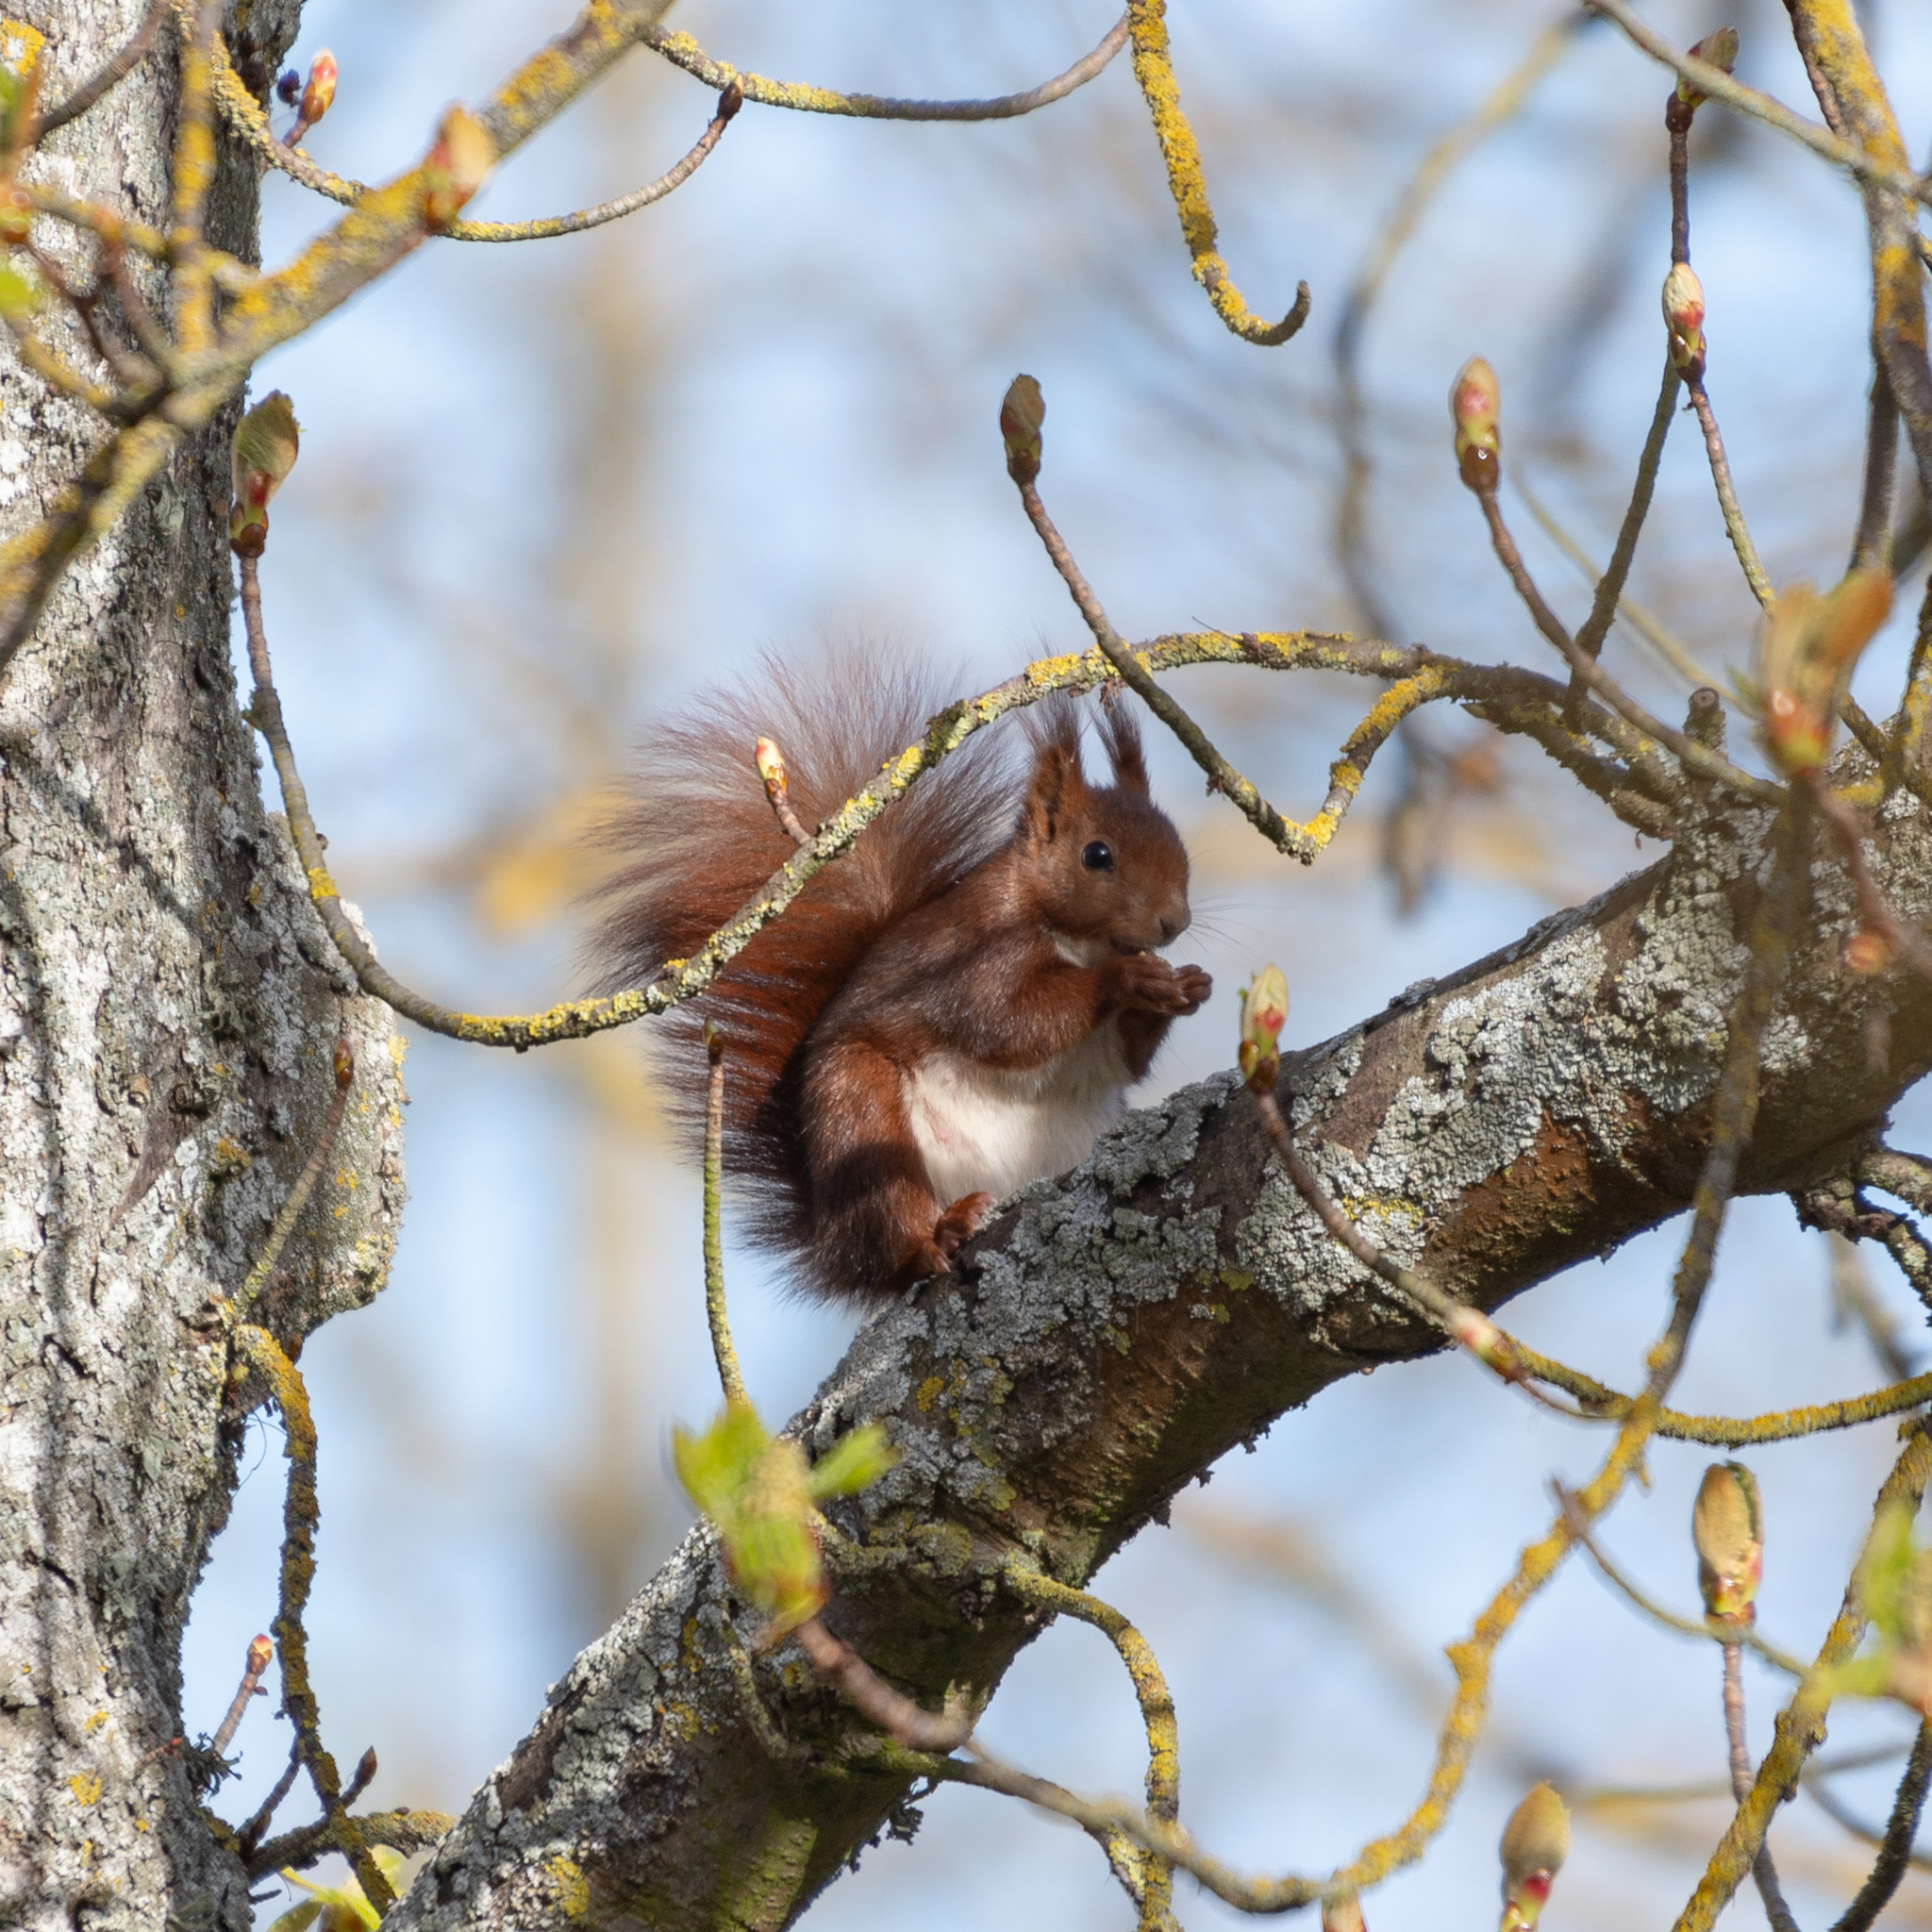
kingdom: Animalia
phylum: Chordata
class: Mammalia
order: Rodentia
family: Sciuridae
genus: Sciurus
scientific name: Sciurus vulgaris
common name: Eurasian red squirrel
